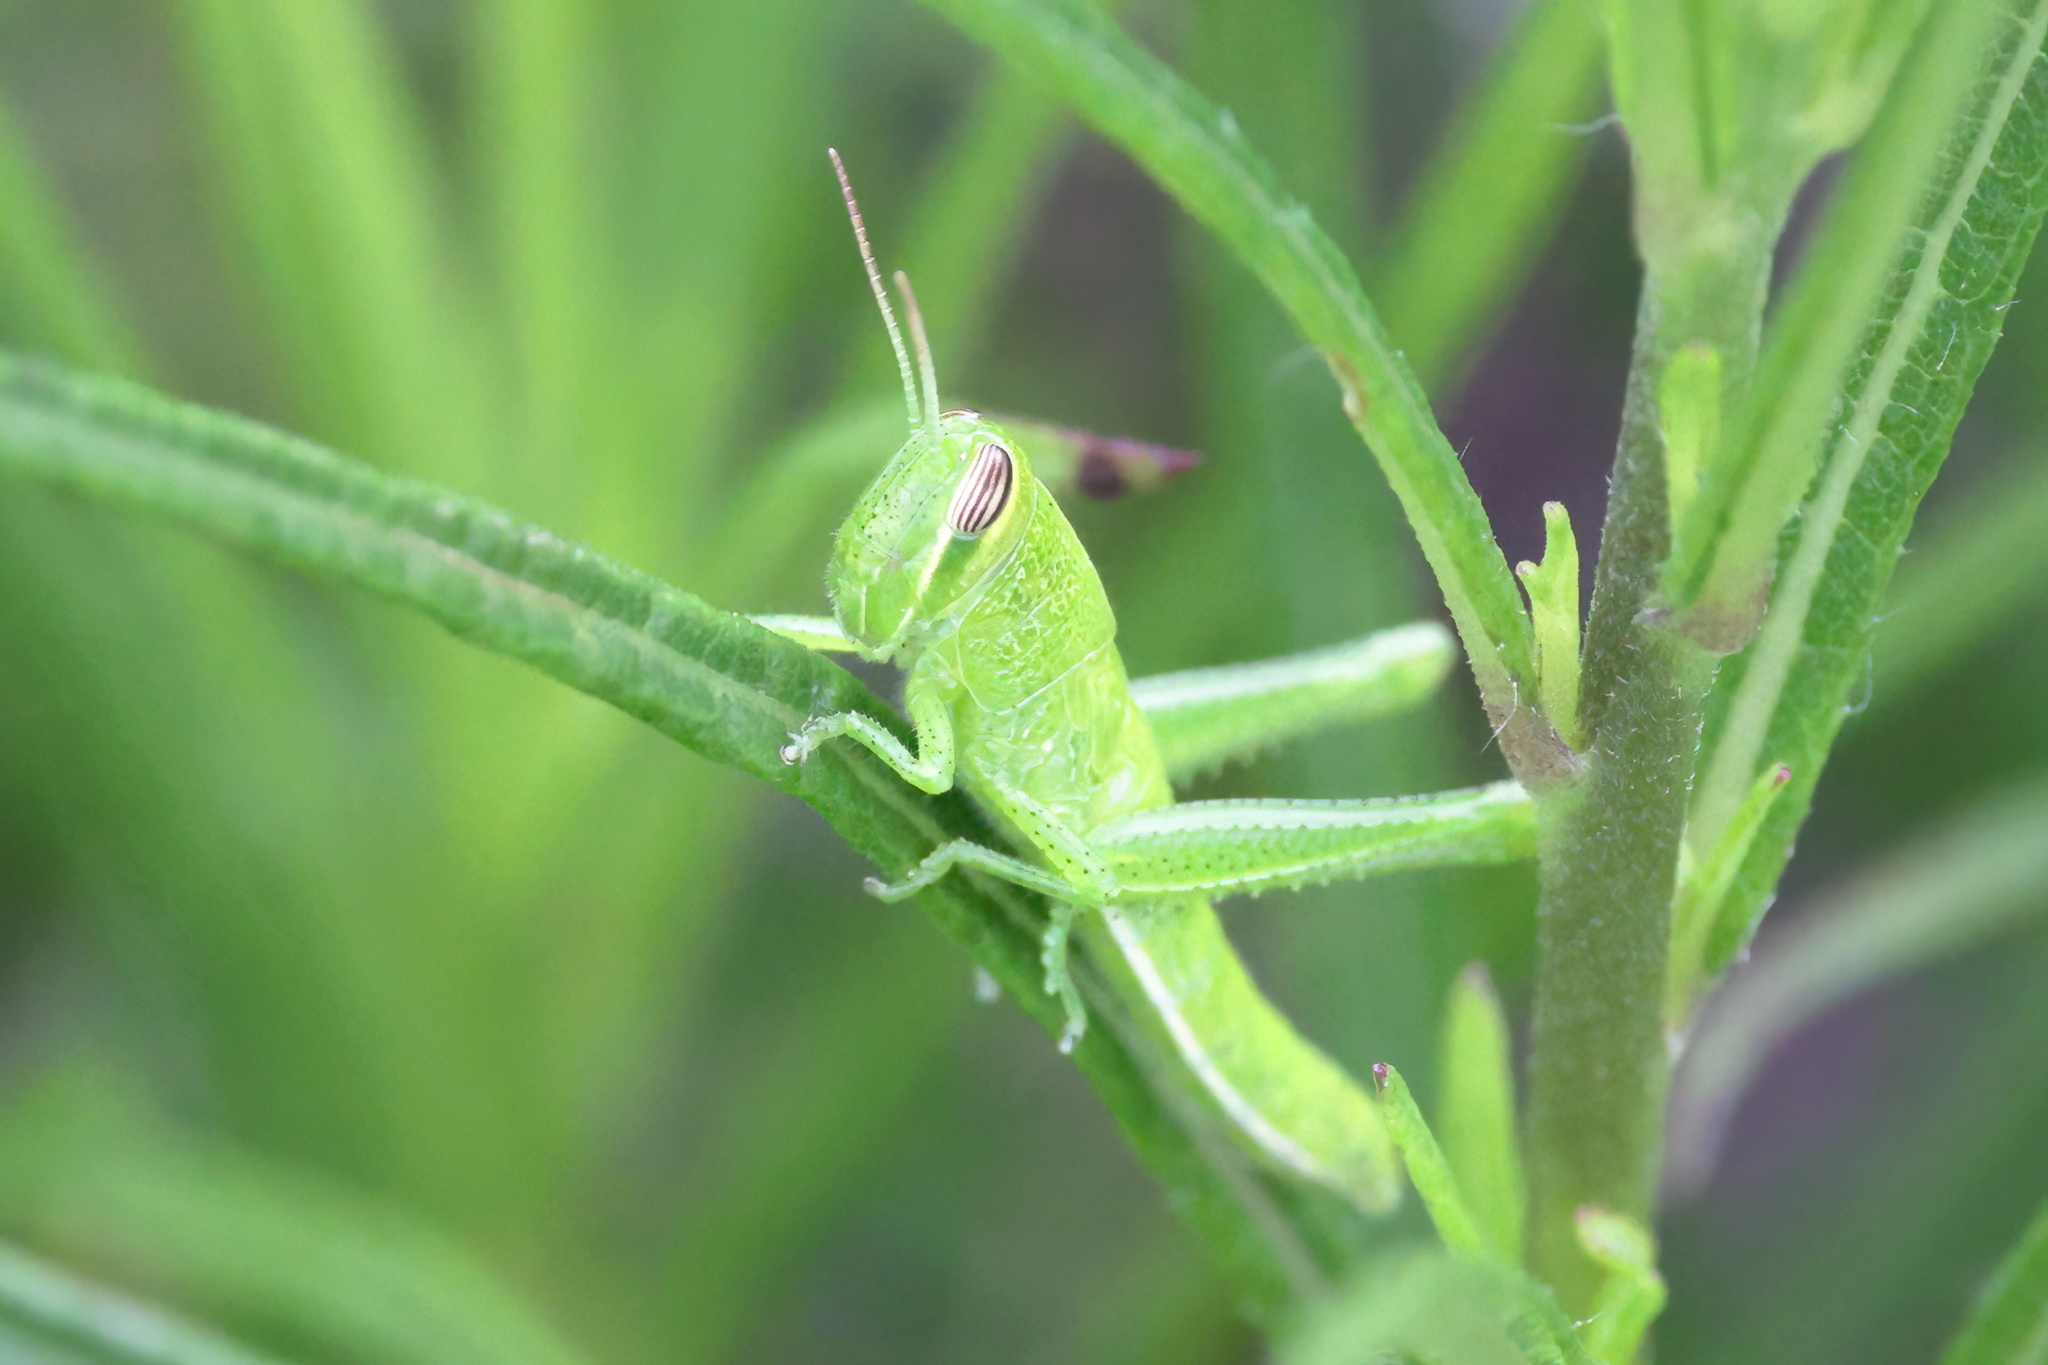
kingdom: Animalia
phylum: Arthropoda
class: Insecta
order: Orthoptera
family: Acrididae
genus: Schistocerca
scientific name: Schistocerca americana
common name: American bird locust
